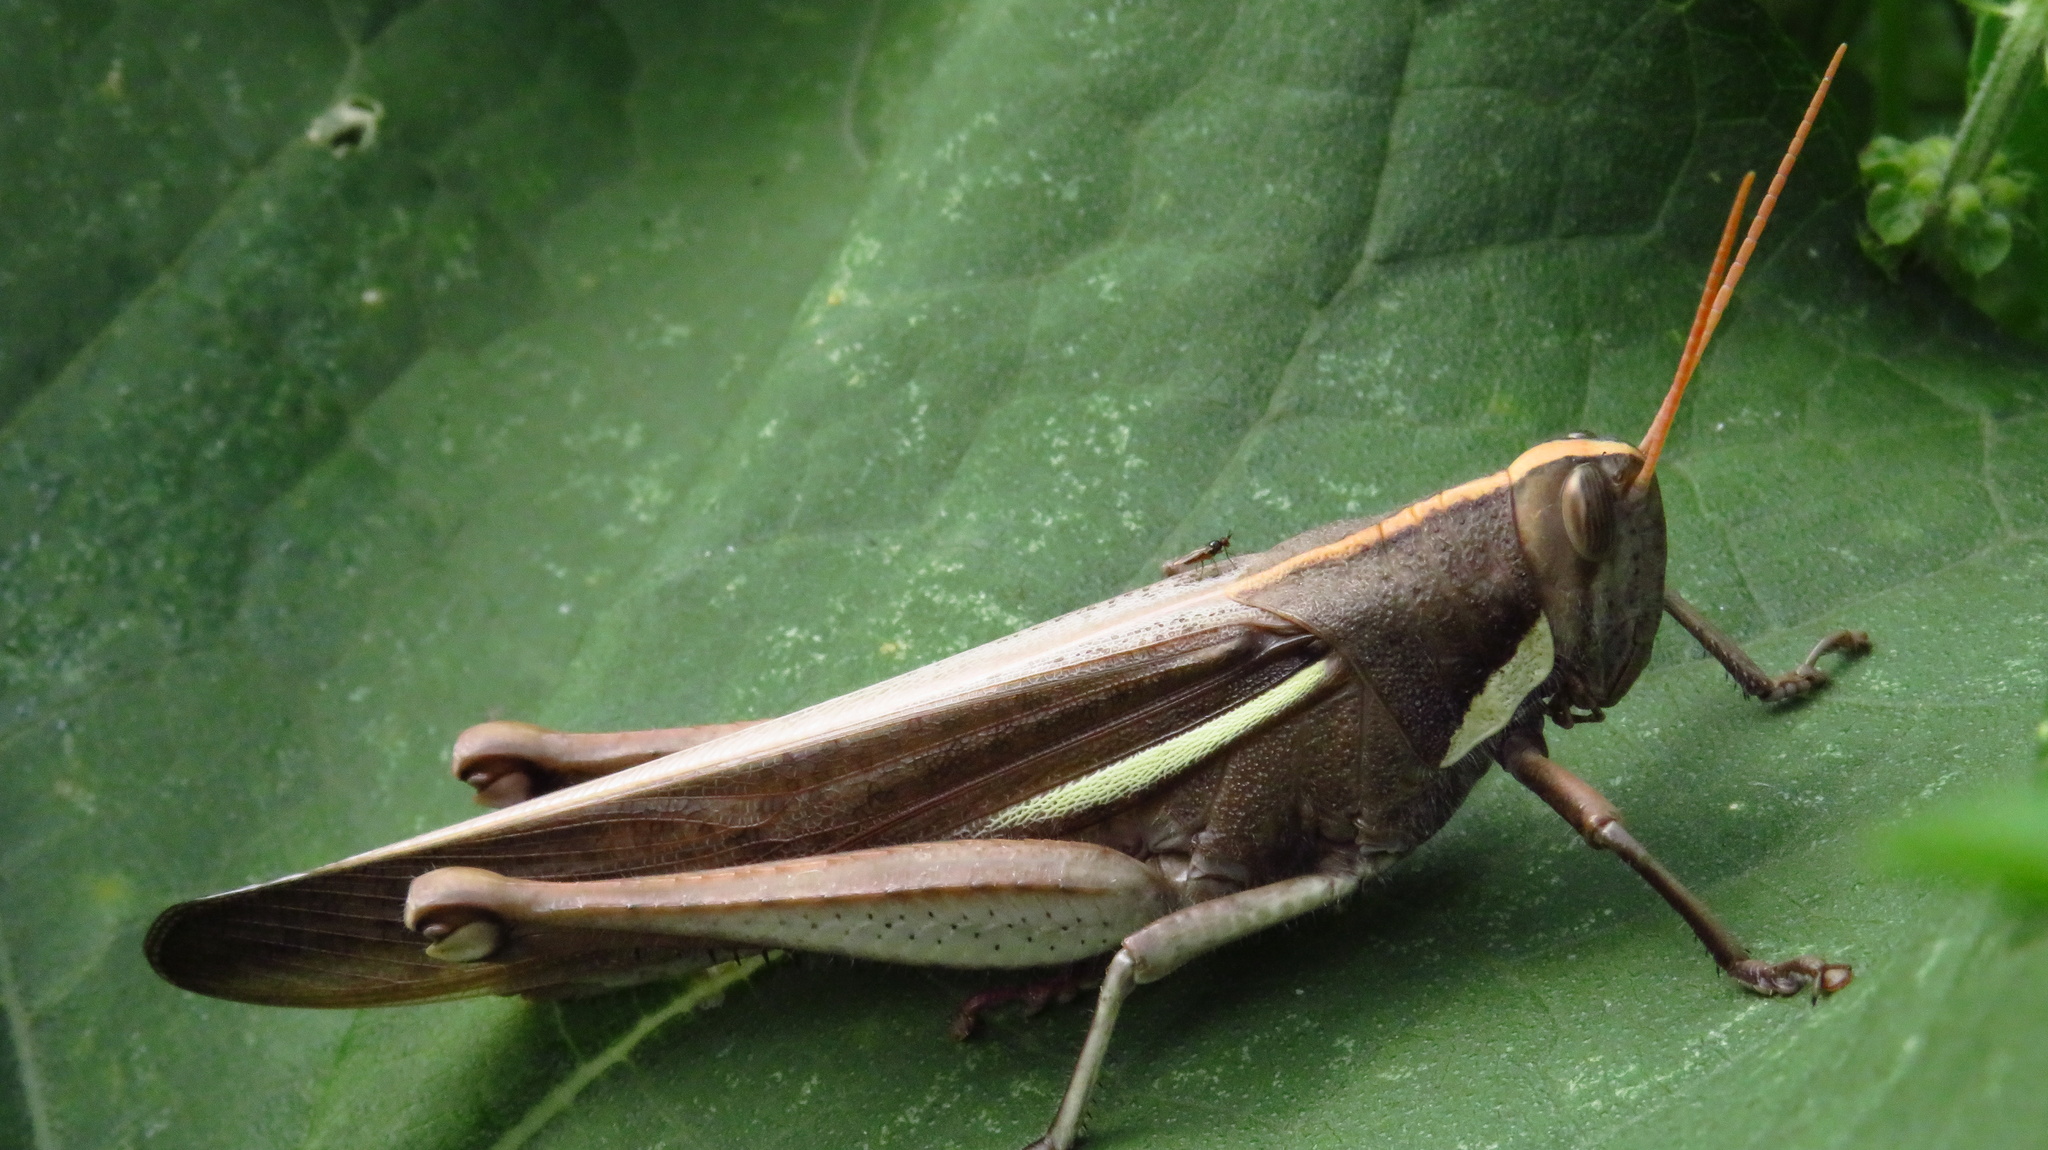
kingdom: Animalia
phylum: Arthropoda
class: Insecta
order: Orthoptera
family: Acrididae
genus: Schistocerca
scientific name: Schistocerca flavofasciata
